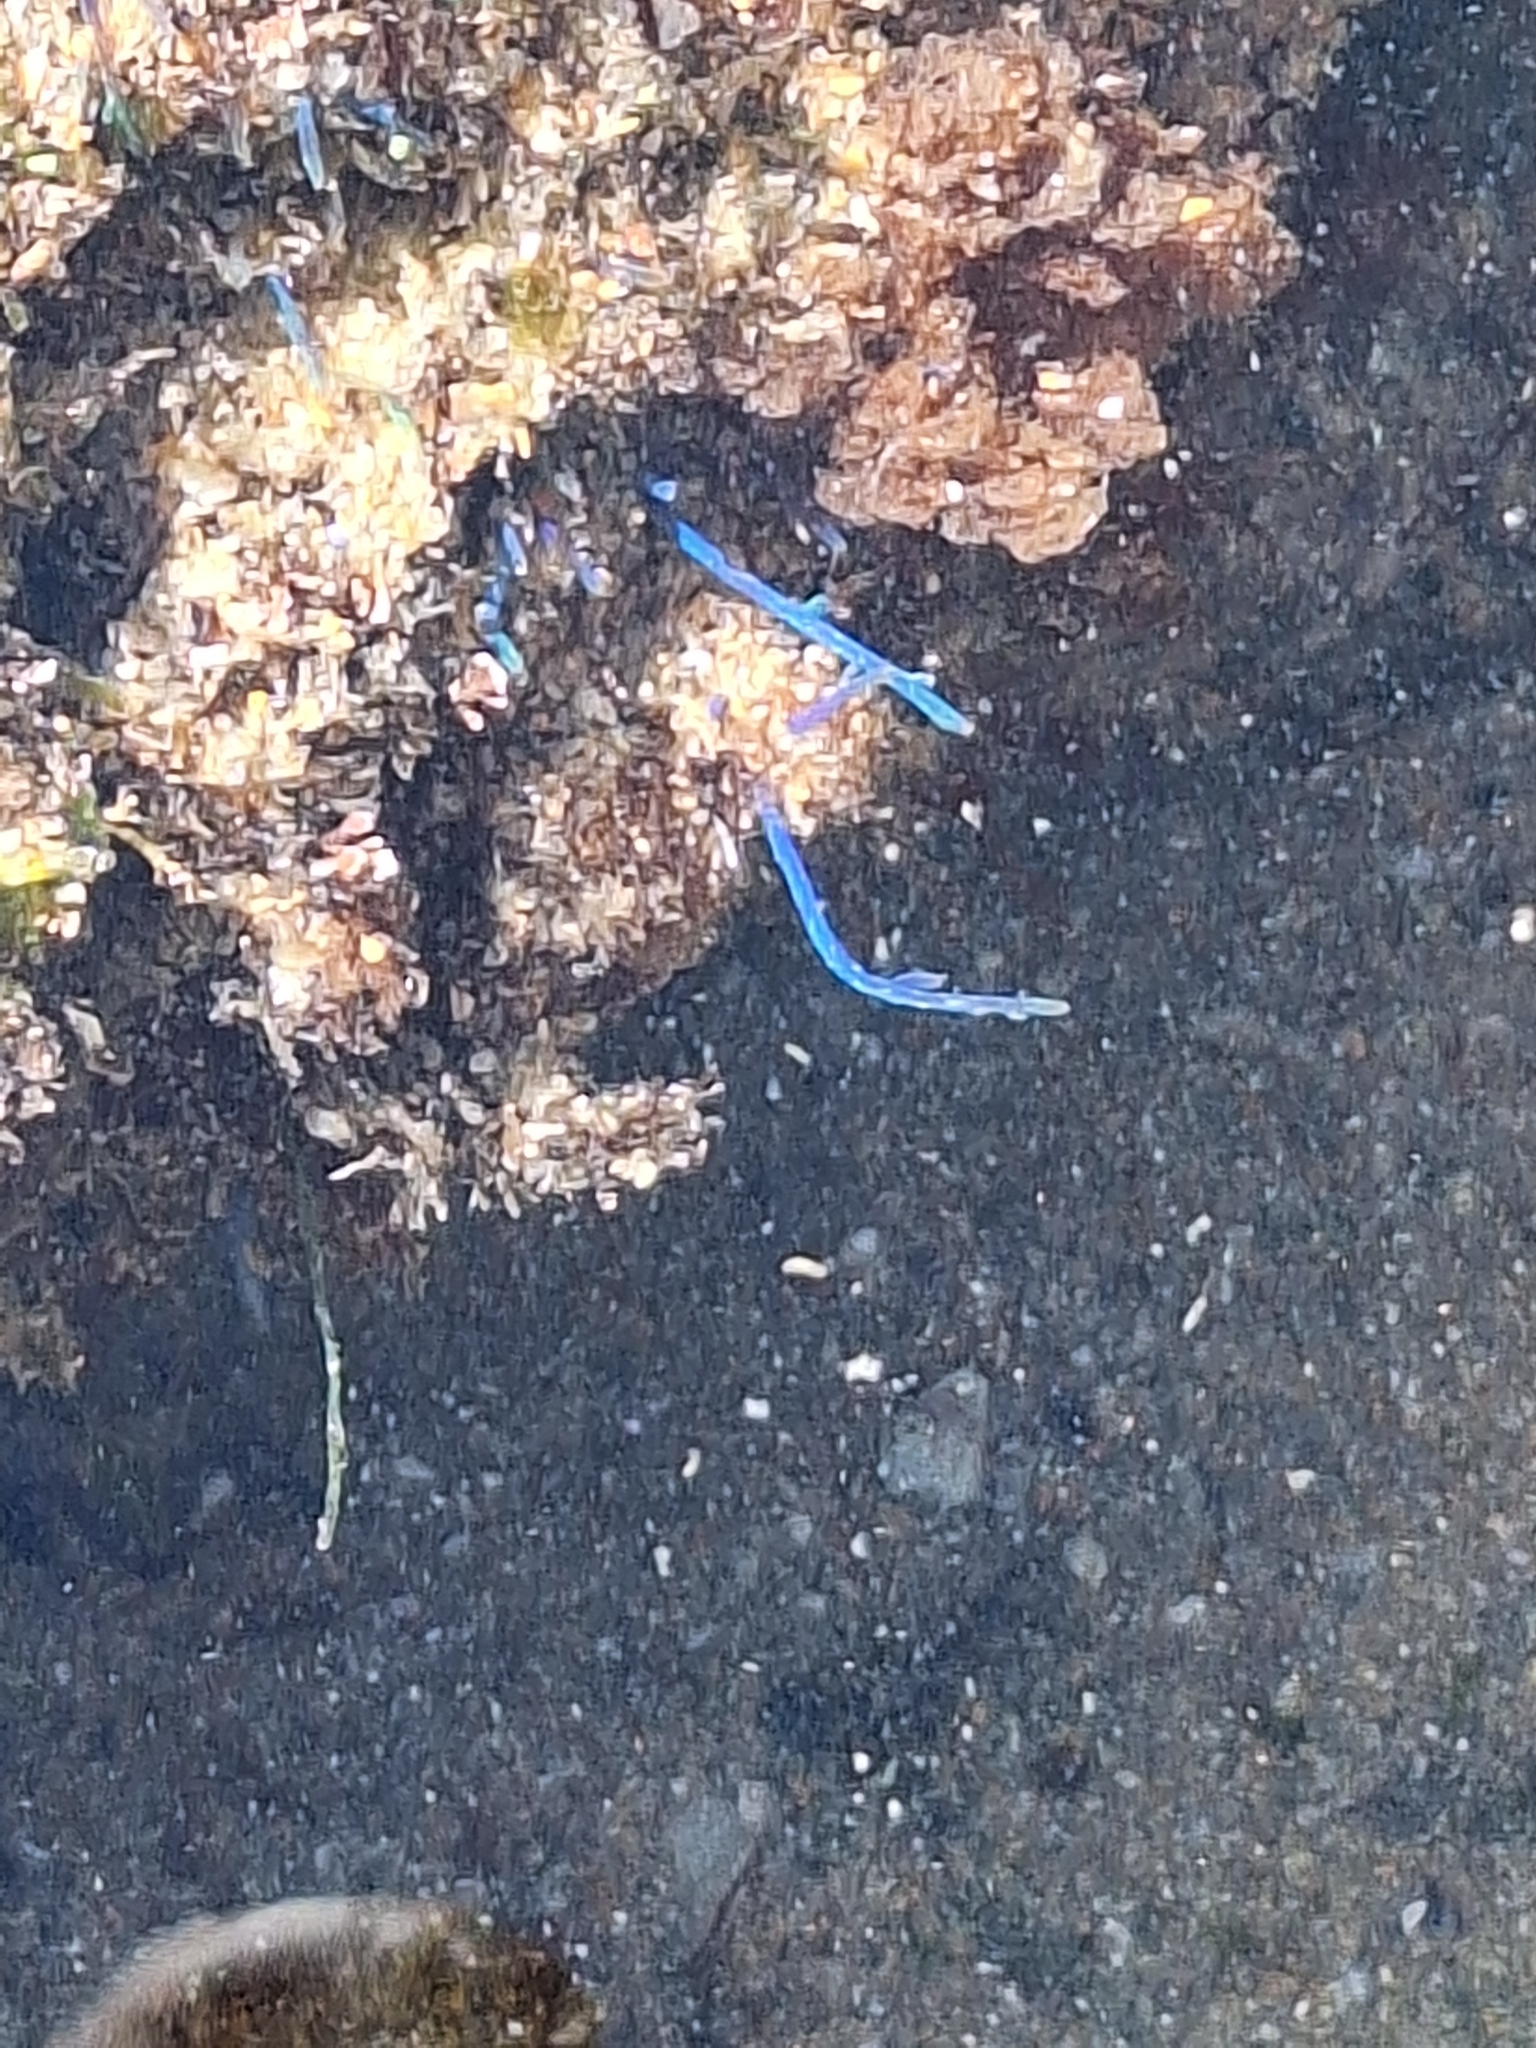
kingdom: Plantae
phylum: Rhodophyta
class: Florideophyceae
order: Ceramiales
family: Rhodomelaceae
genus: Chondria
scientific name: Chondria coerulescens
